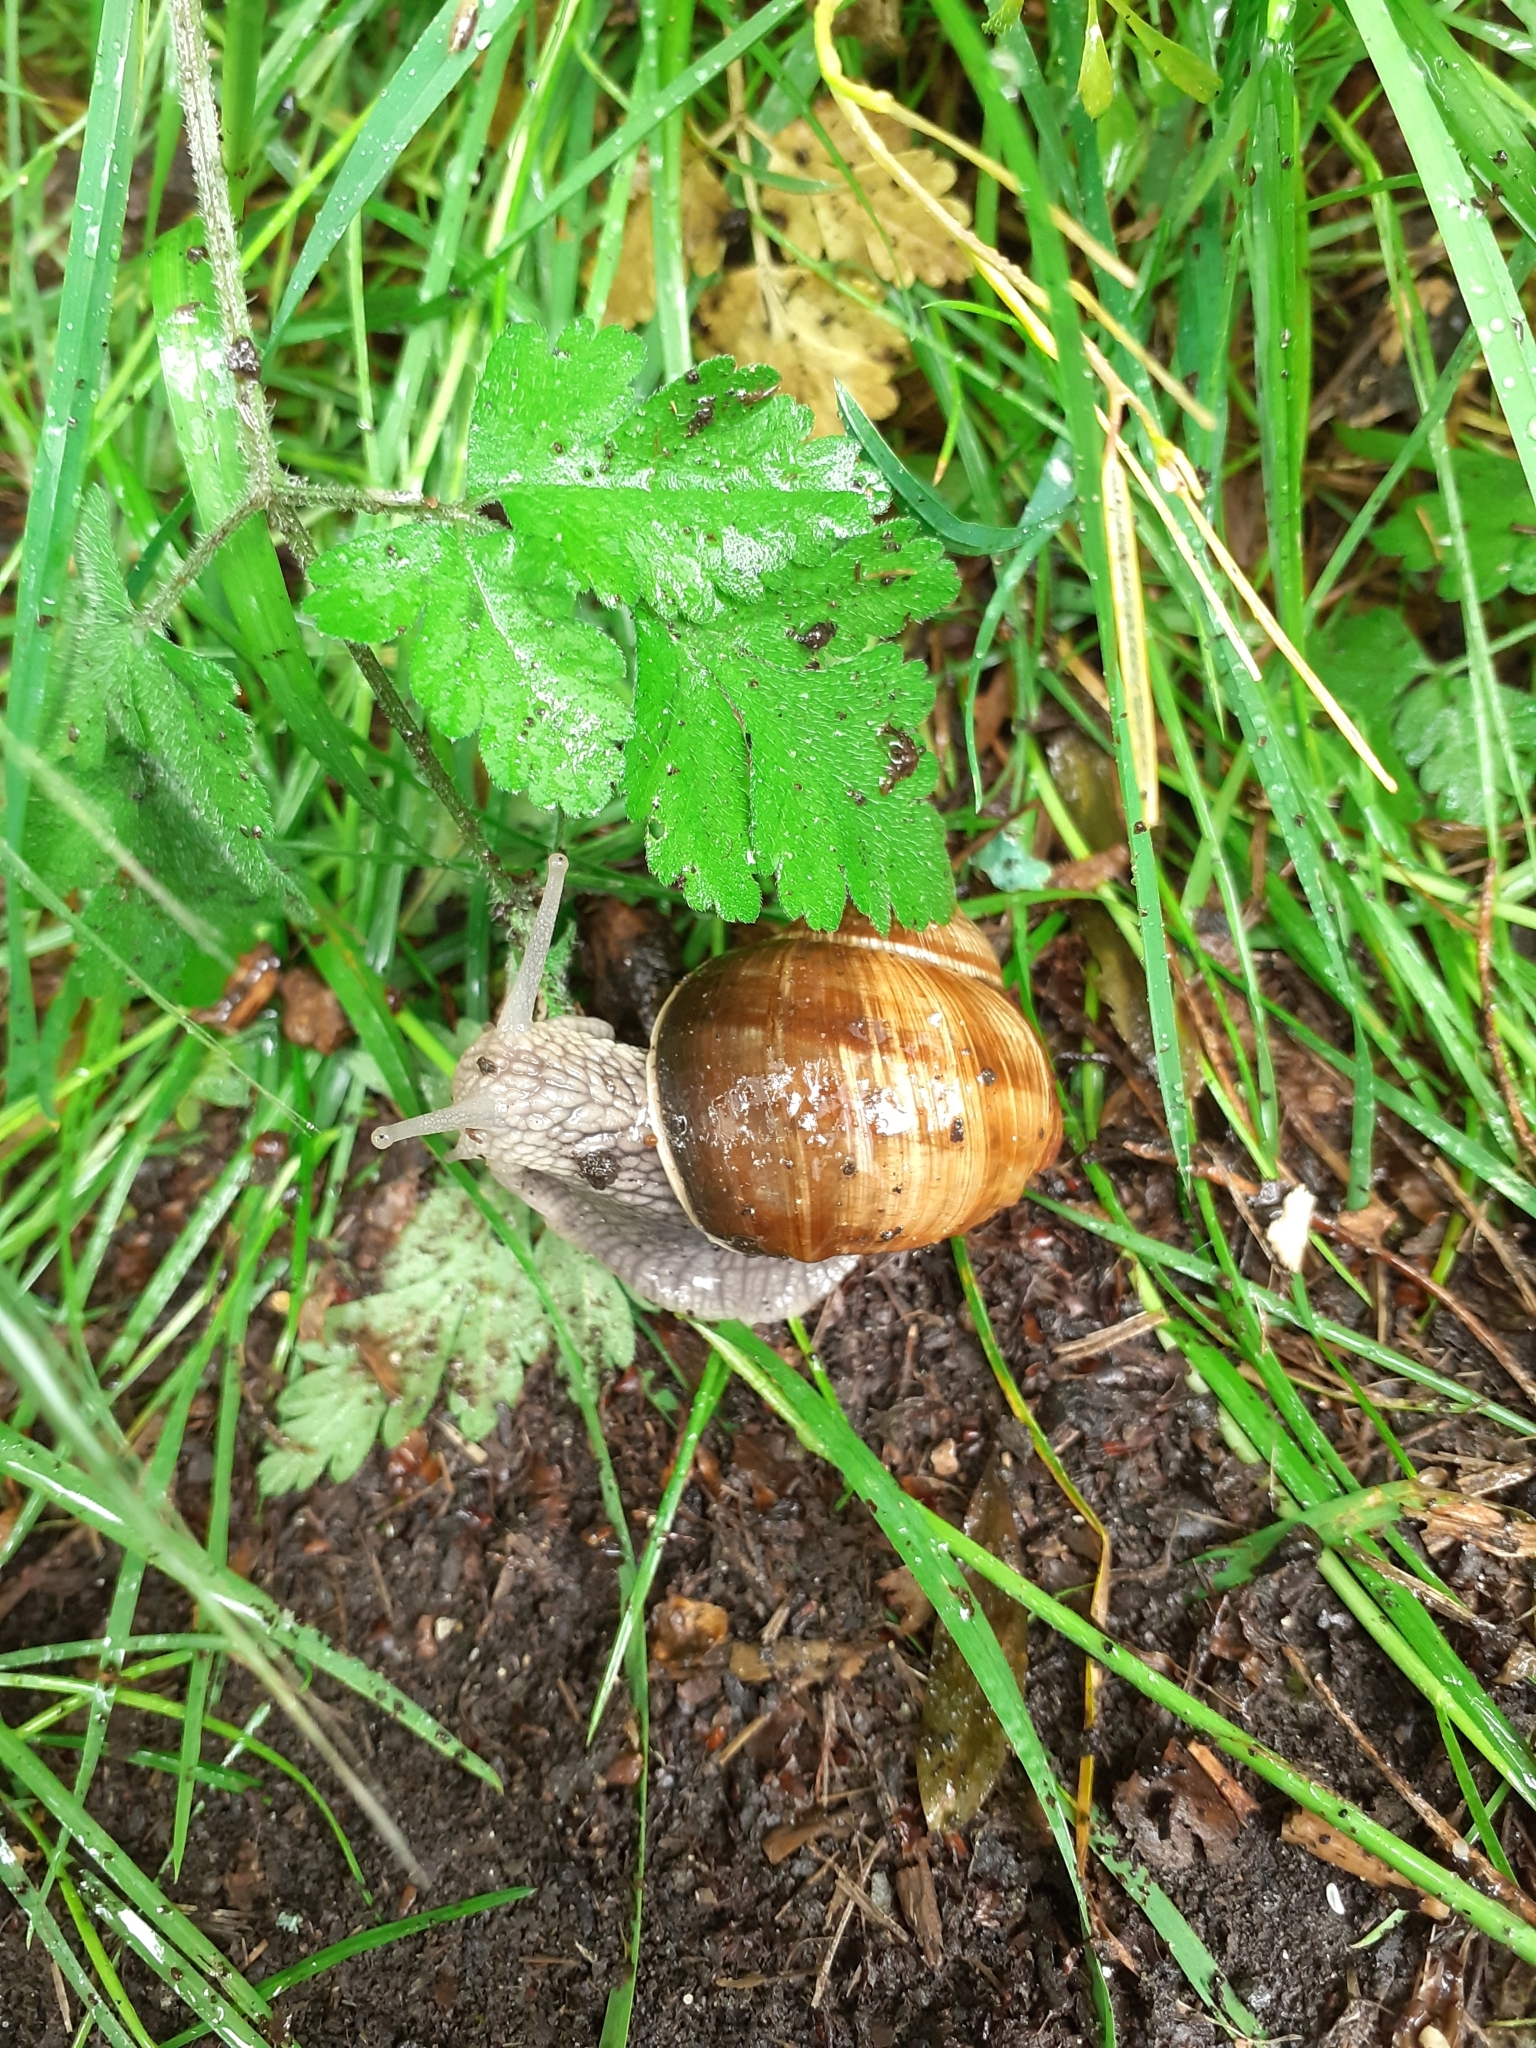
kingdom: Animalia
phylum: Mollusca
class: Gastropoda
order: Stylommatophora
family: Helicidae
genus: Helix
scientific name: Helix pomatia
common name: Roman snail
